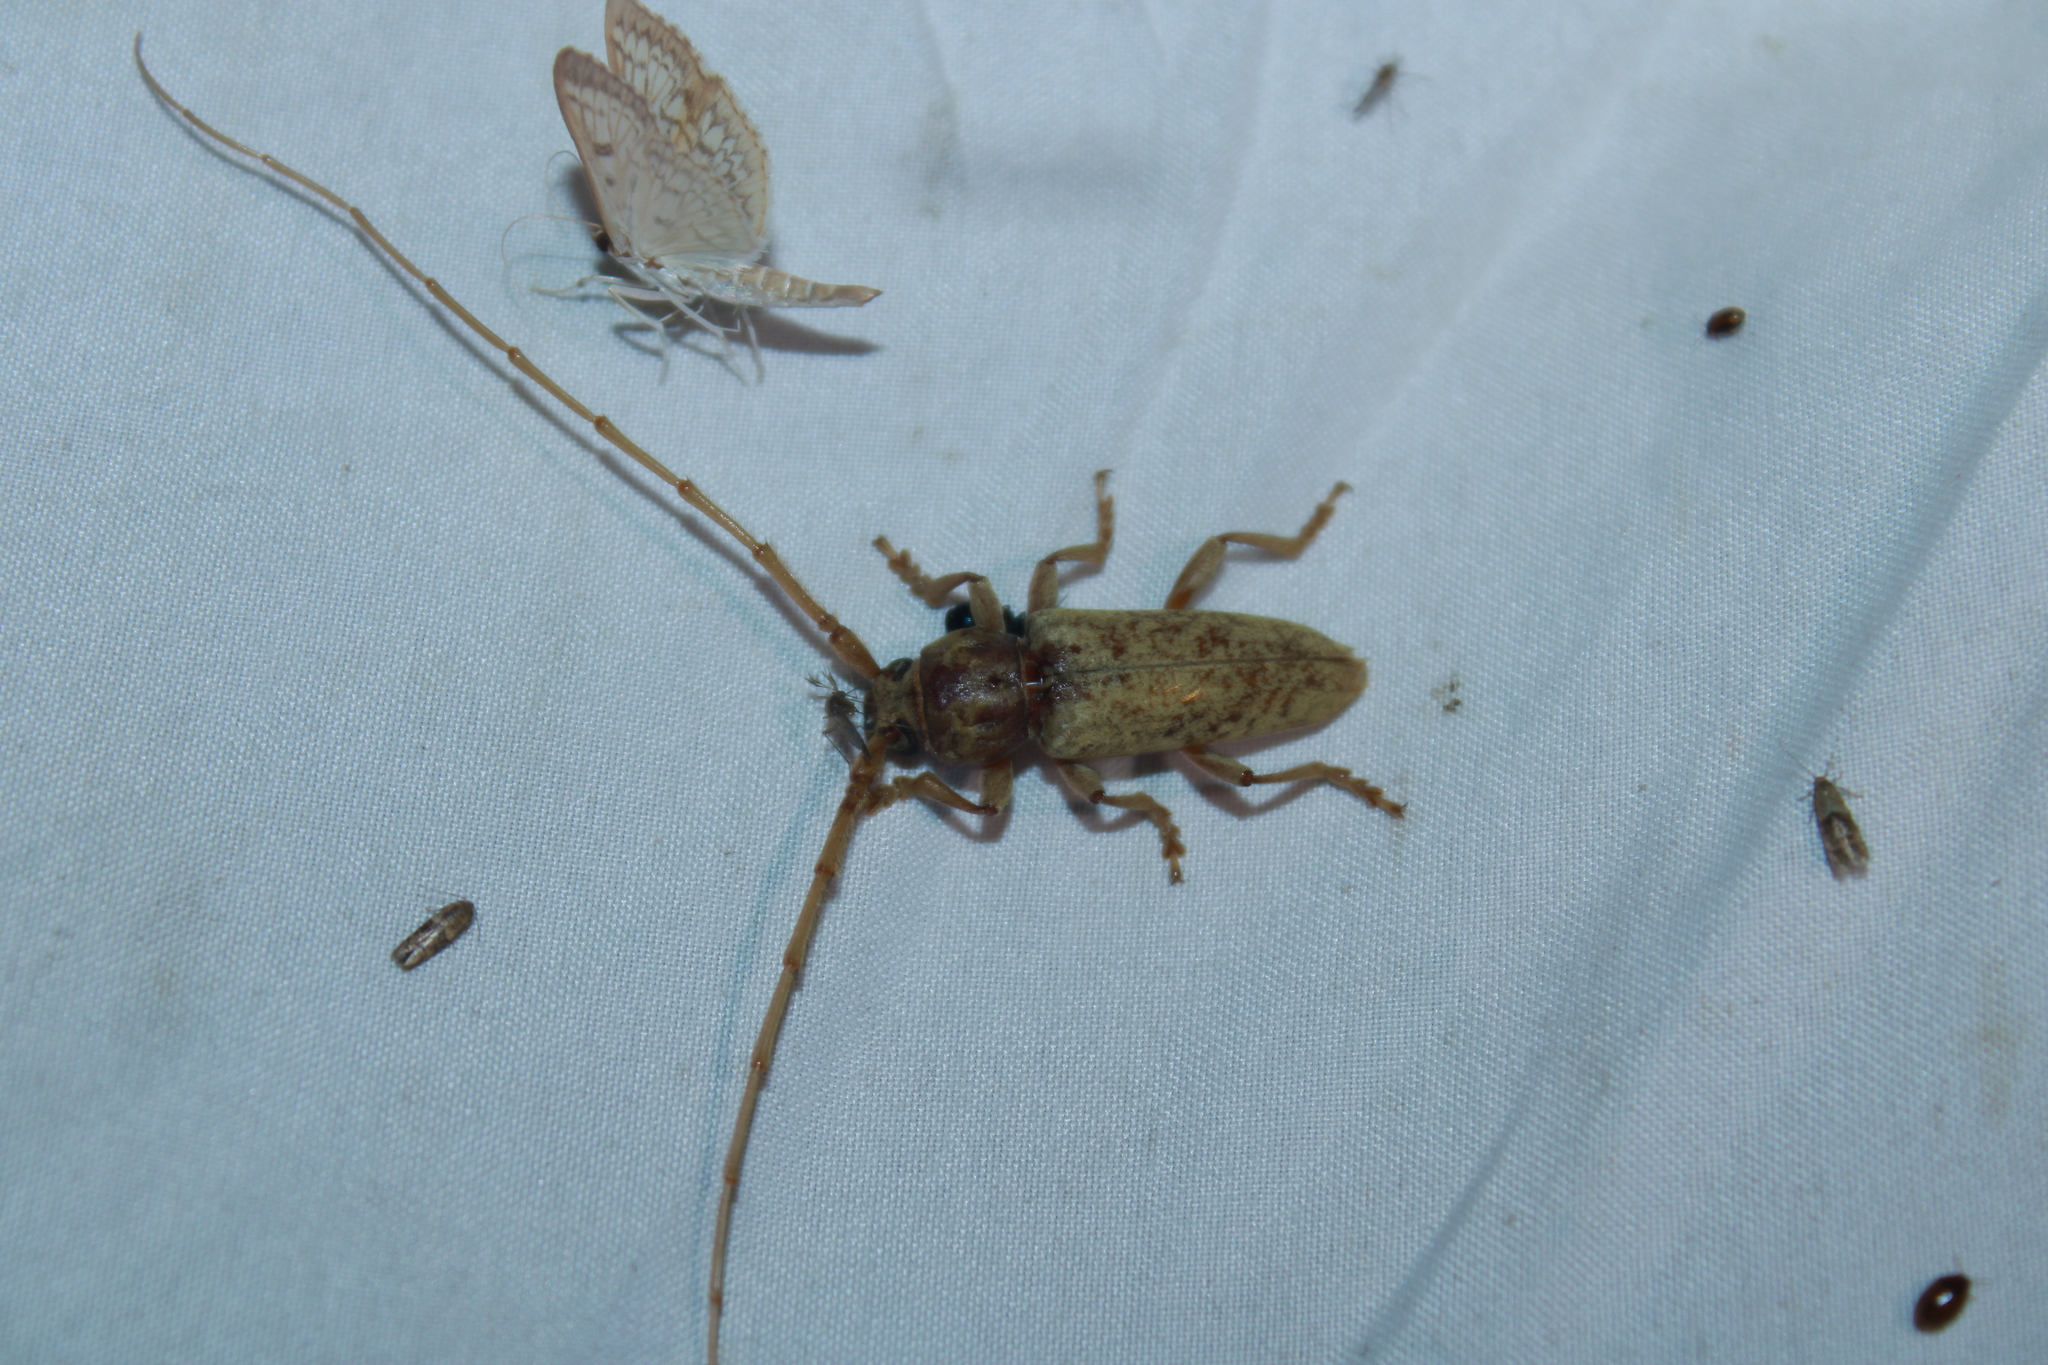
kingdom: Animalia
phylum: Arthropoda
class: Insecta
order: Coleoptera
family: Cerambycidae
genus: Enaphalodes
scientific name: Enaphalodes rufulus
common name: Red oak borer
